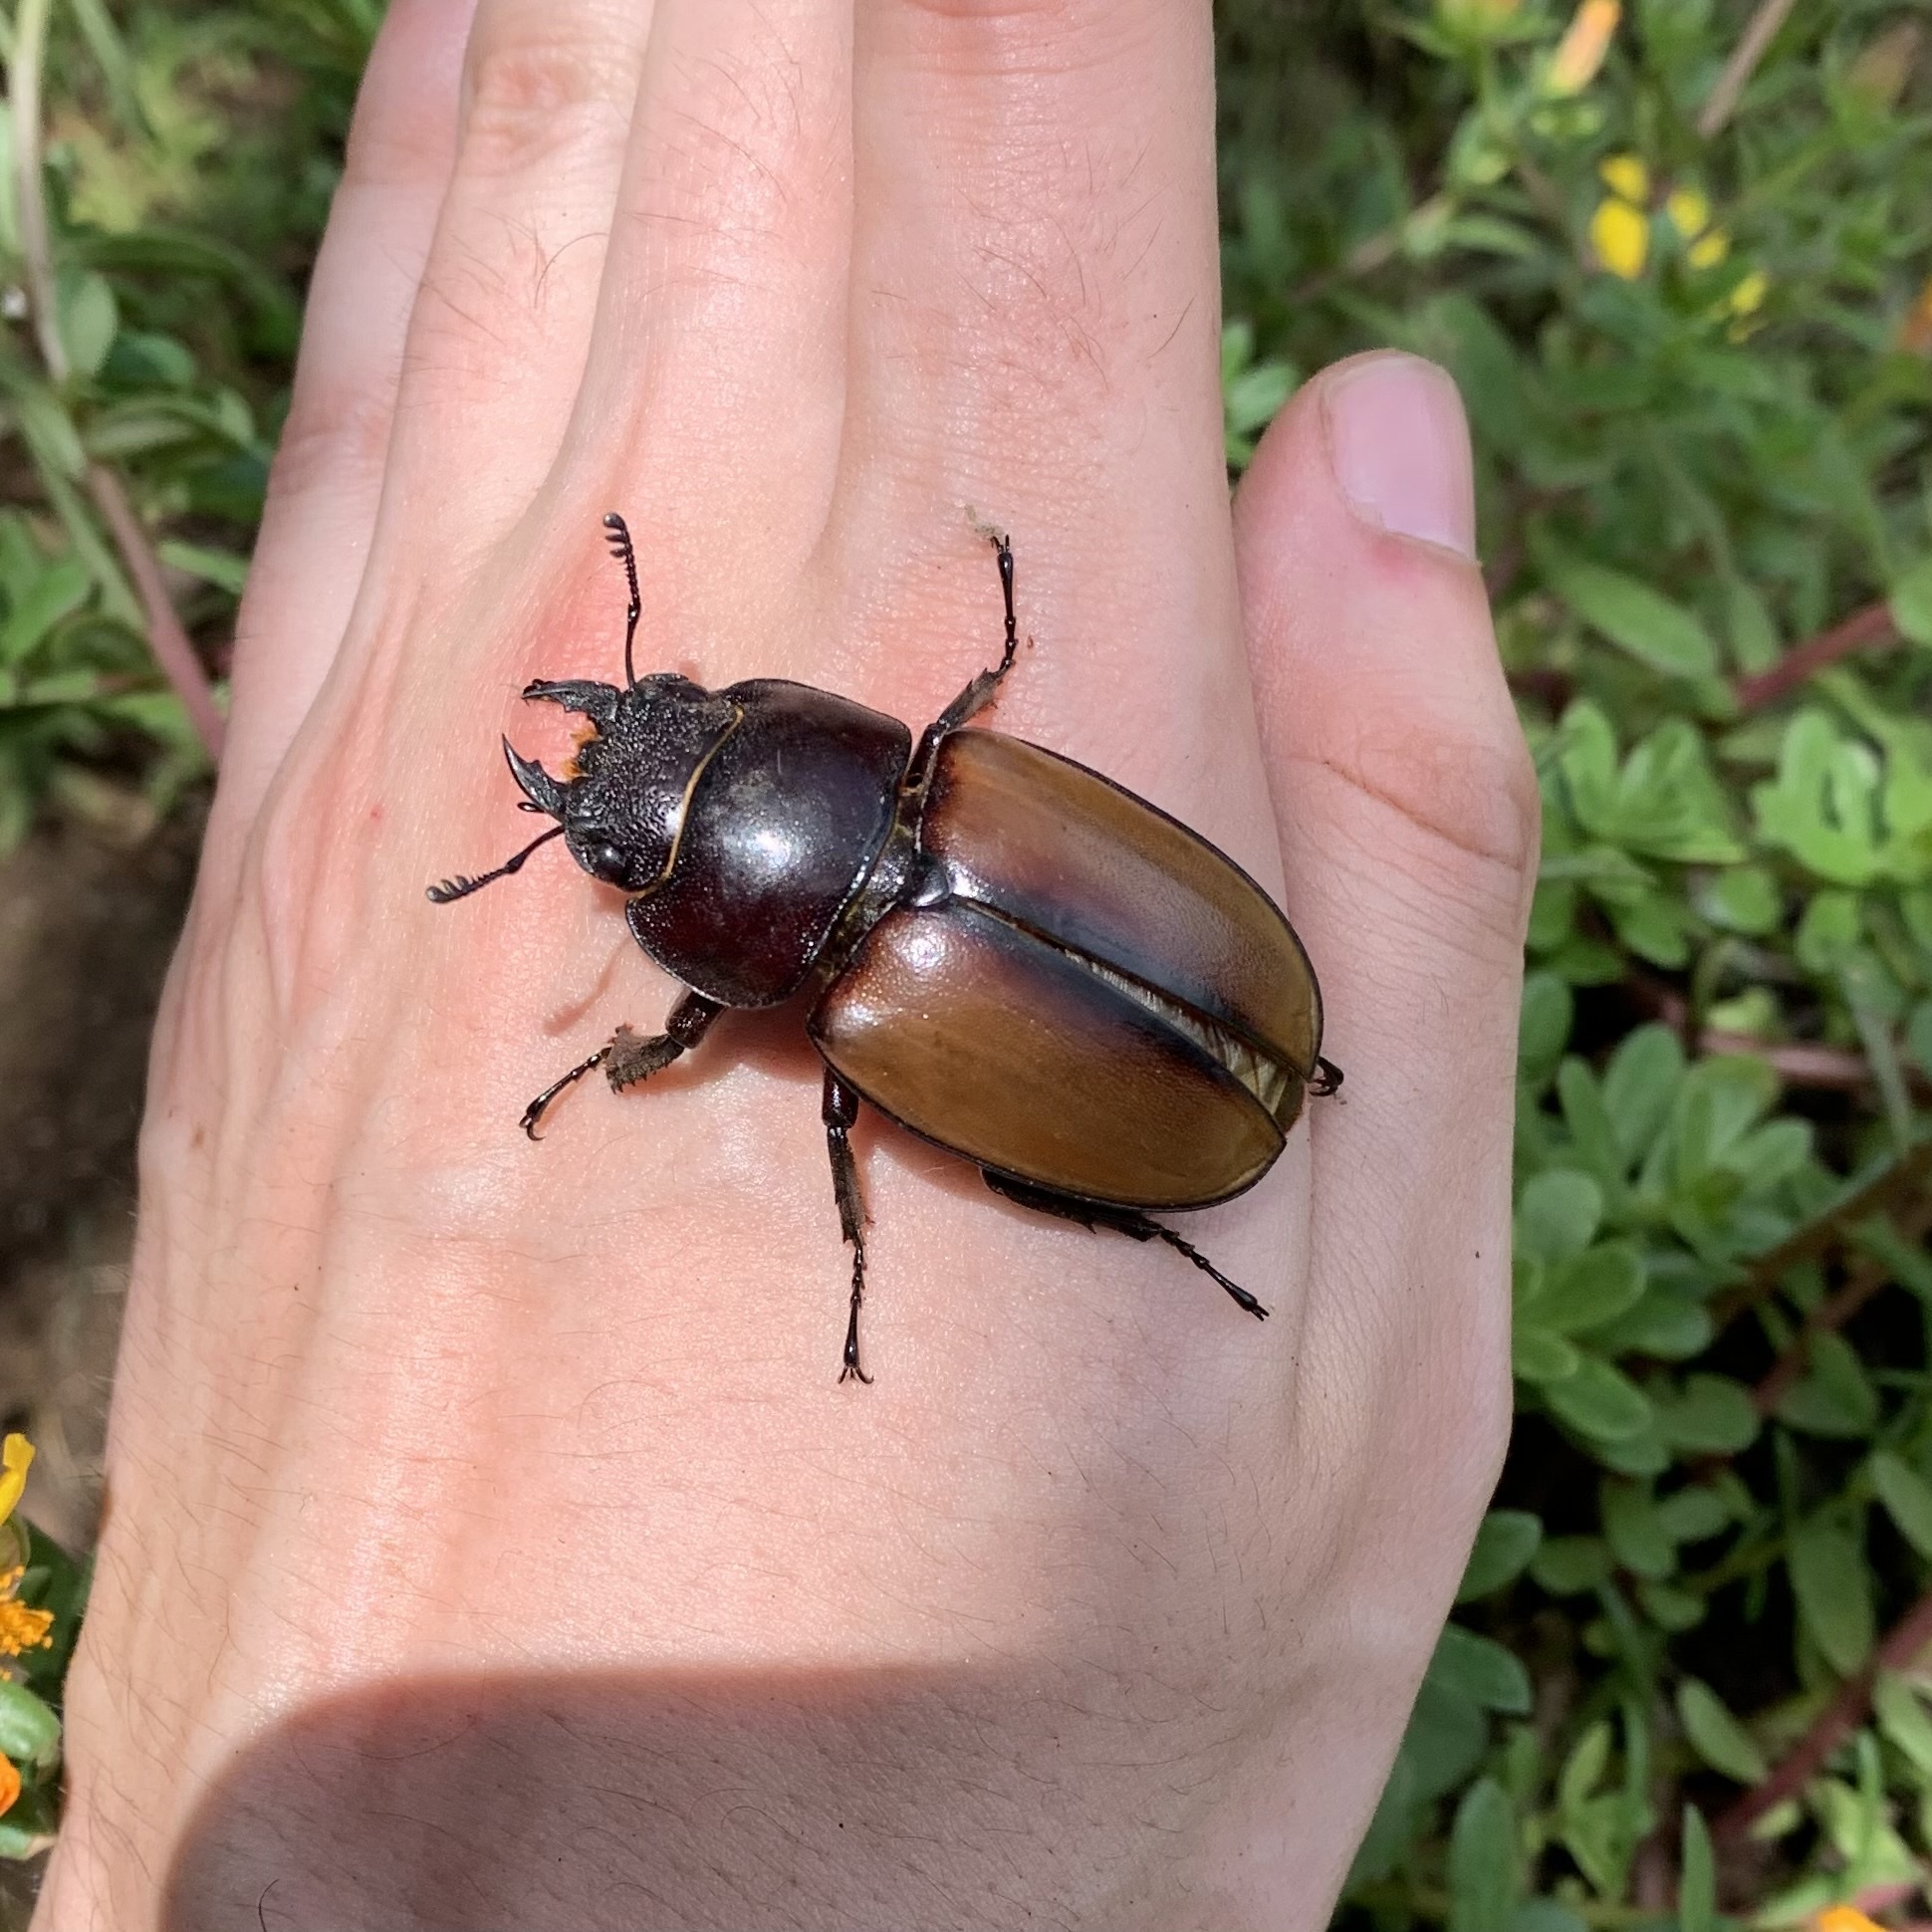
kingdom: Animalia
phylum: Arthropoda
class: Insecta
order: Coleoptera
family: Lucanidae
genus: Prosopocoilus
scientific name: Prosopocoilus lafertei
